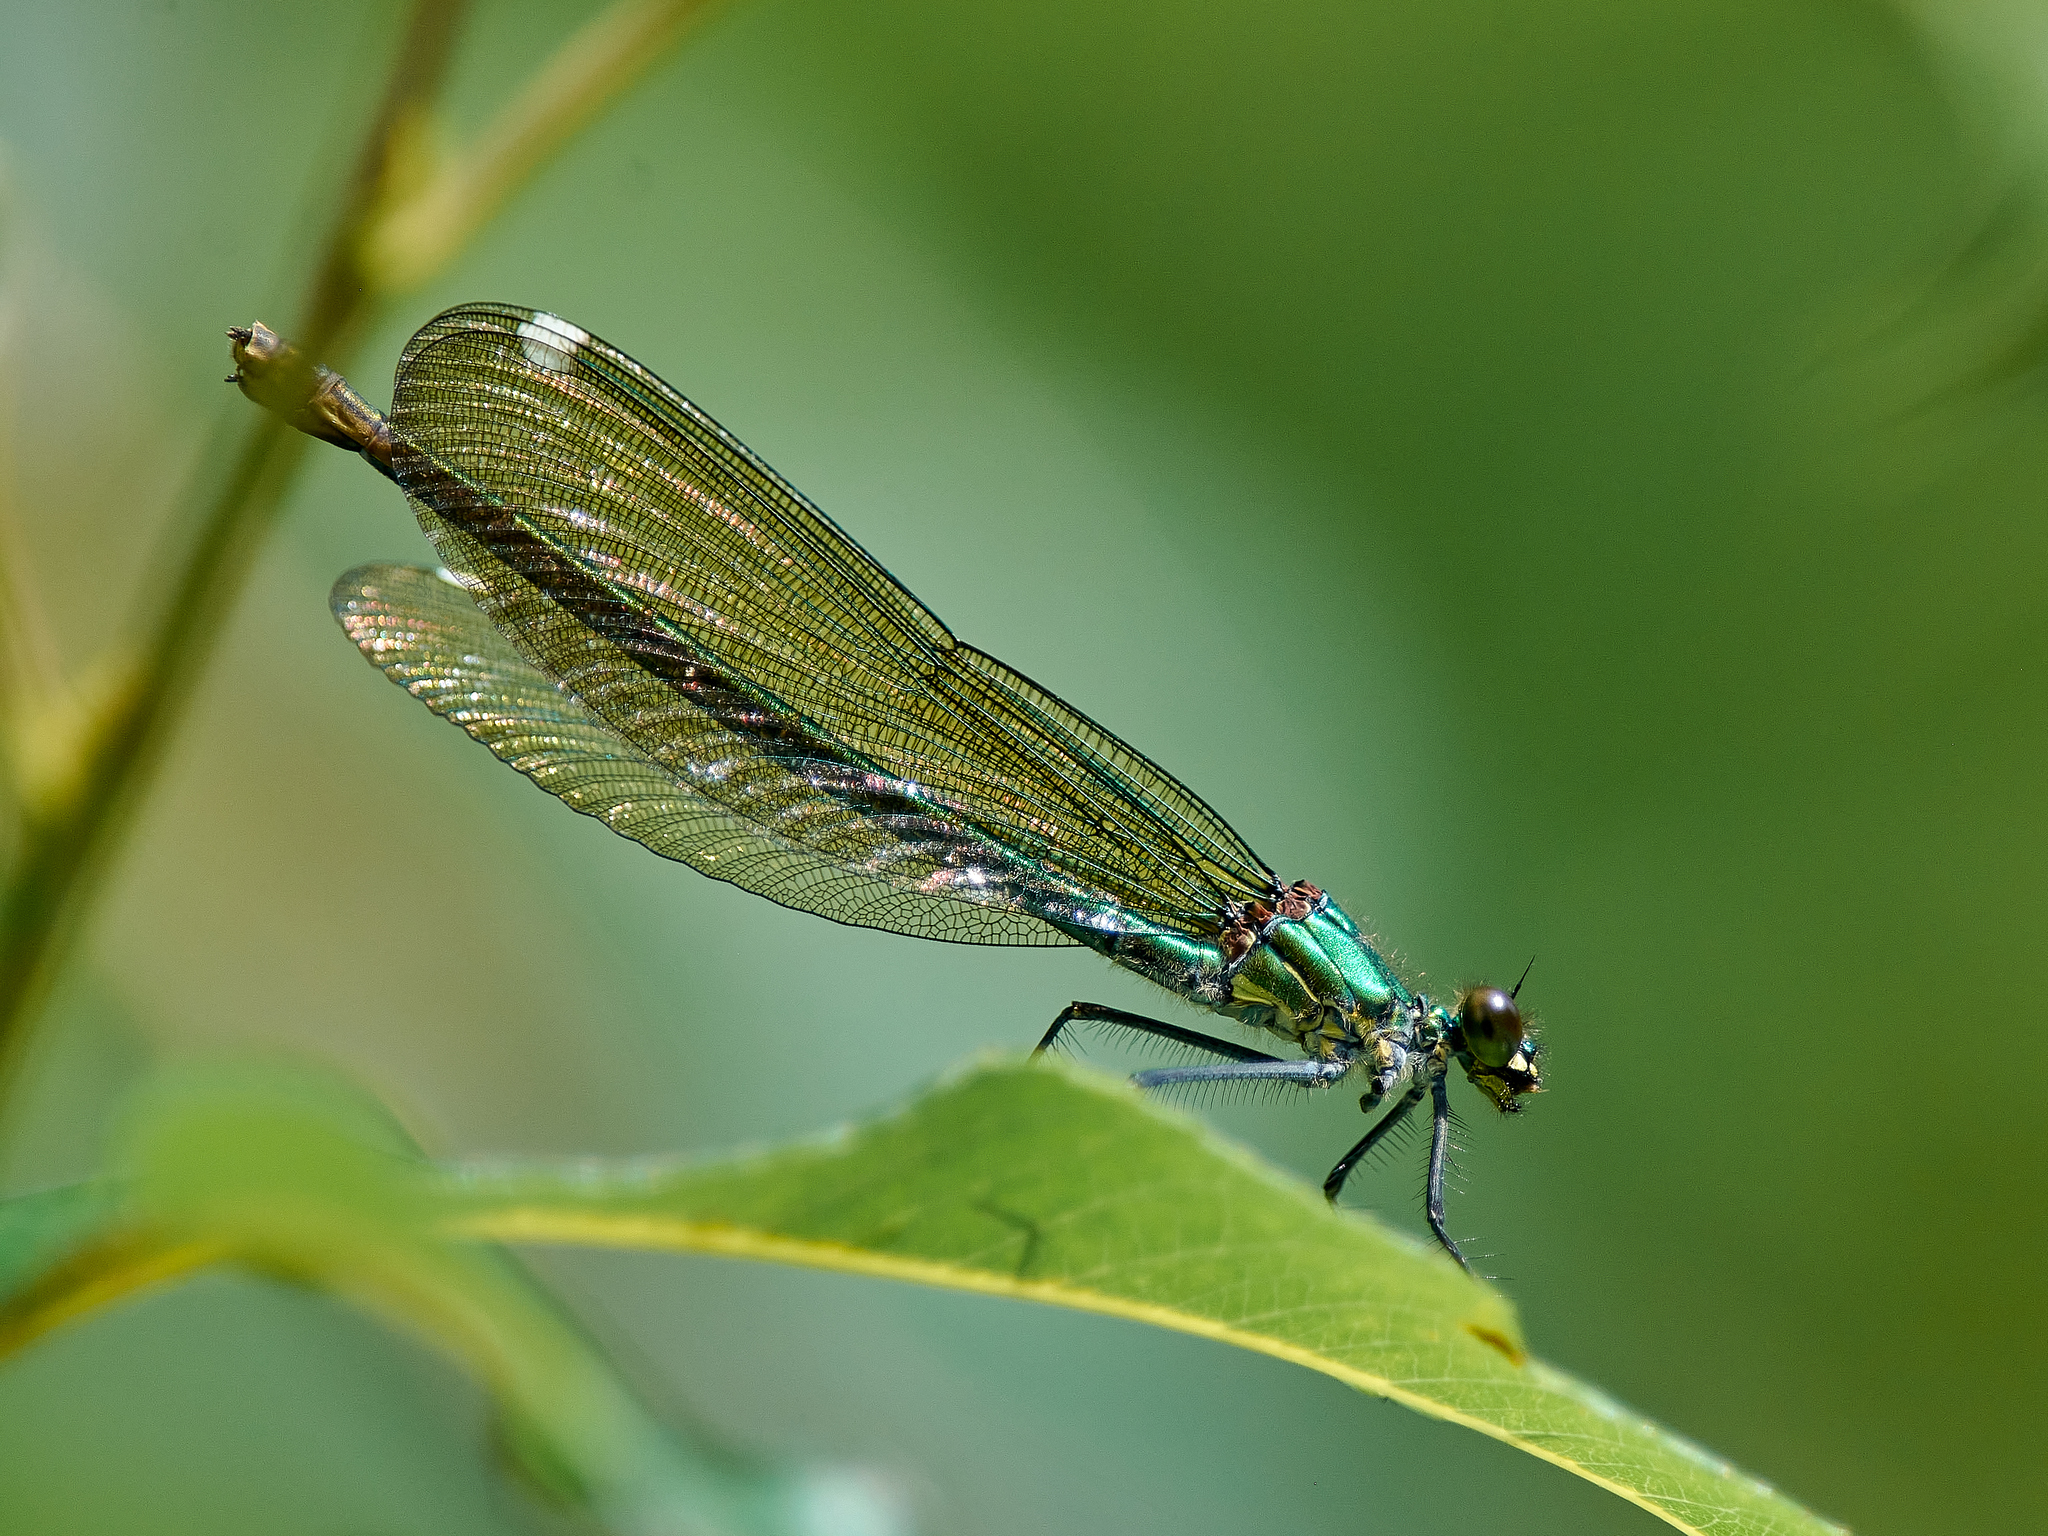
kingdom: Animalia
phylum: Arthropoda
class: Insecta
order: Odonata
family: Calopterygidae
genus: Calopteryx
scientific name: Calopteryx splendens
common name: Banded demoiselle
